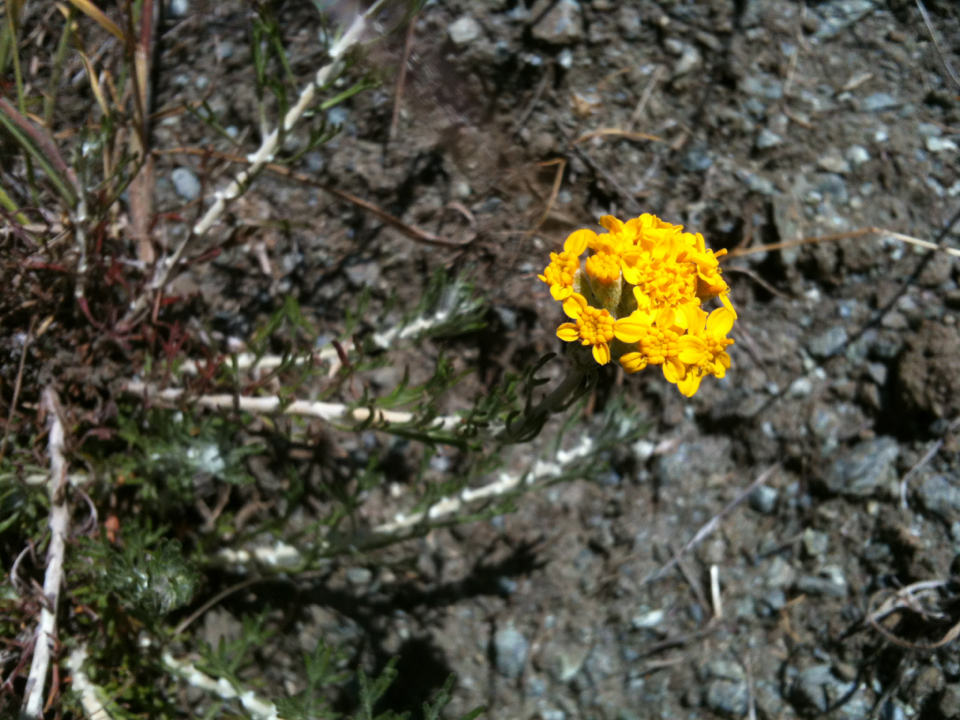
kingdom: Plantae
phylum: Tracheophyta
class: Magnoliopsida
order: Asterales
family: Asteraceae
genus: Eriophyllum
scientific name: Eriophyllum confertiflorum
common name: Golden-yarrow
